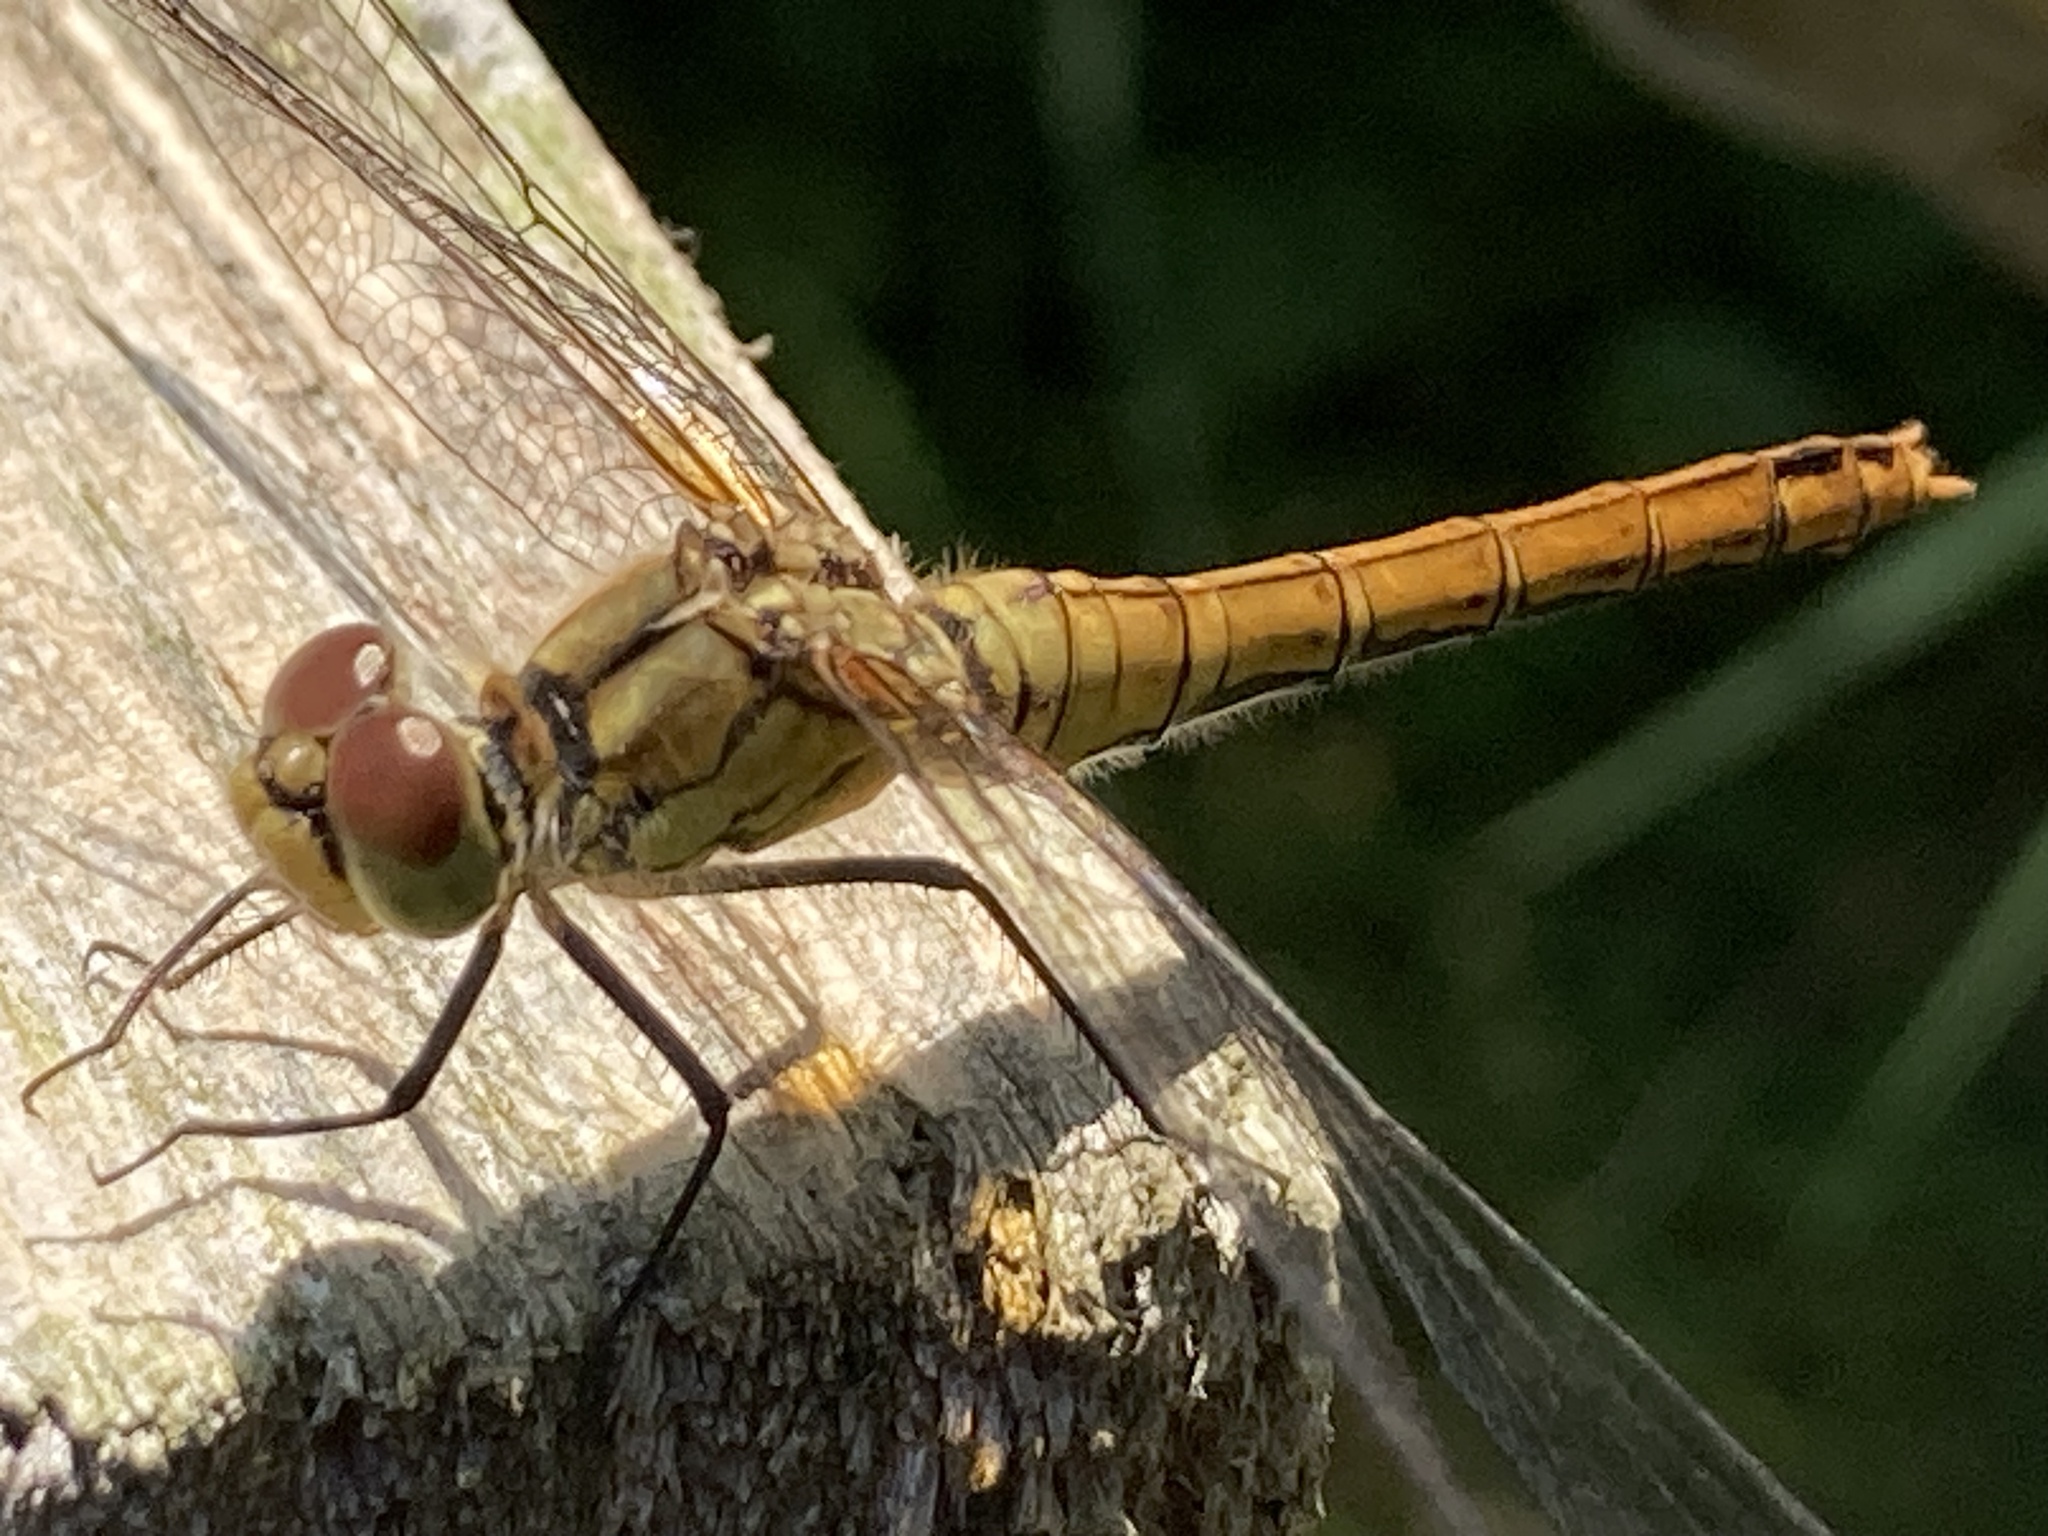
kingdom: Animalia
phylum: Arthropoda
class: Insecta
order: Odonata
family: Libellulidae
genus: Sympetrum
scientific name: Sympetrum sanguineum
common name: Ruddy darter
